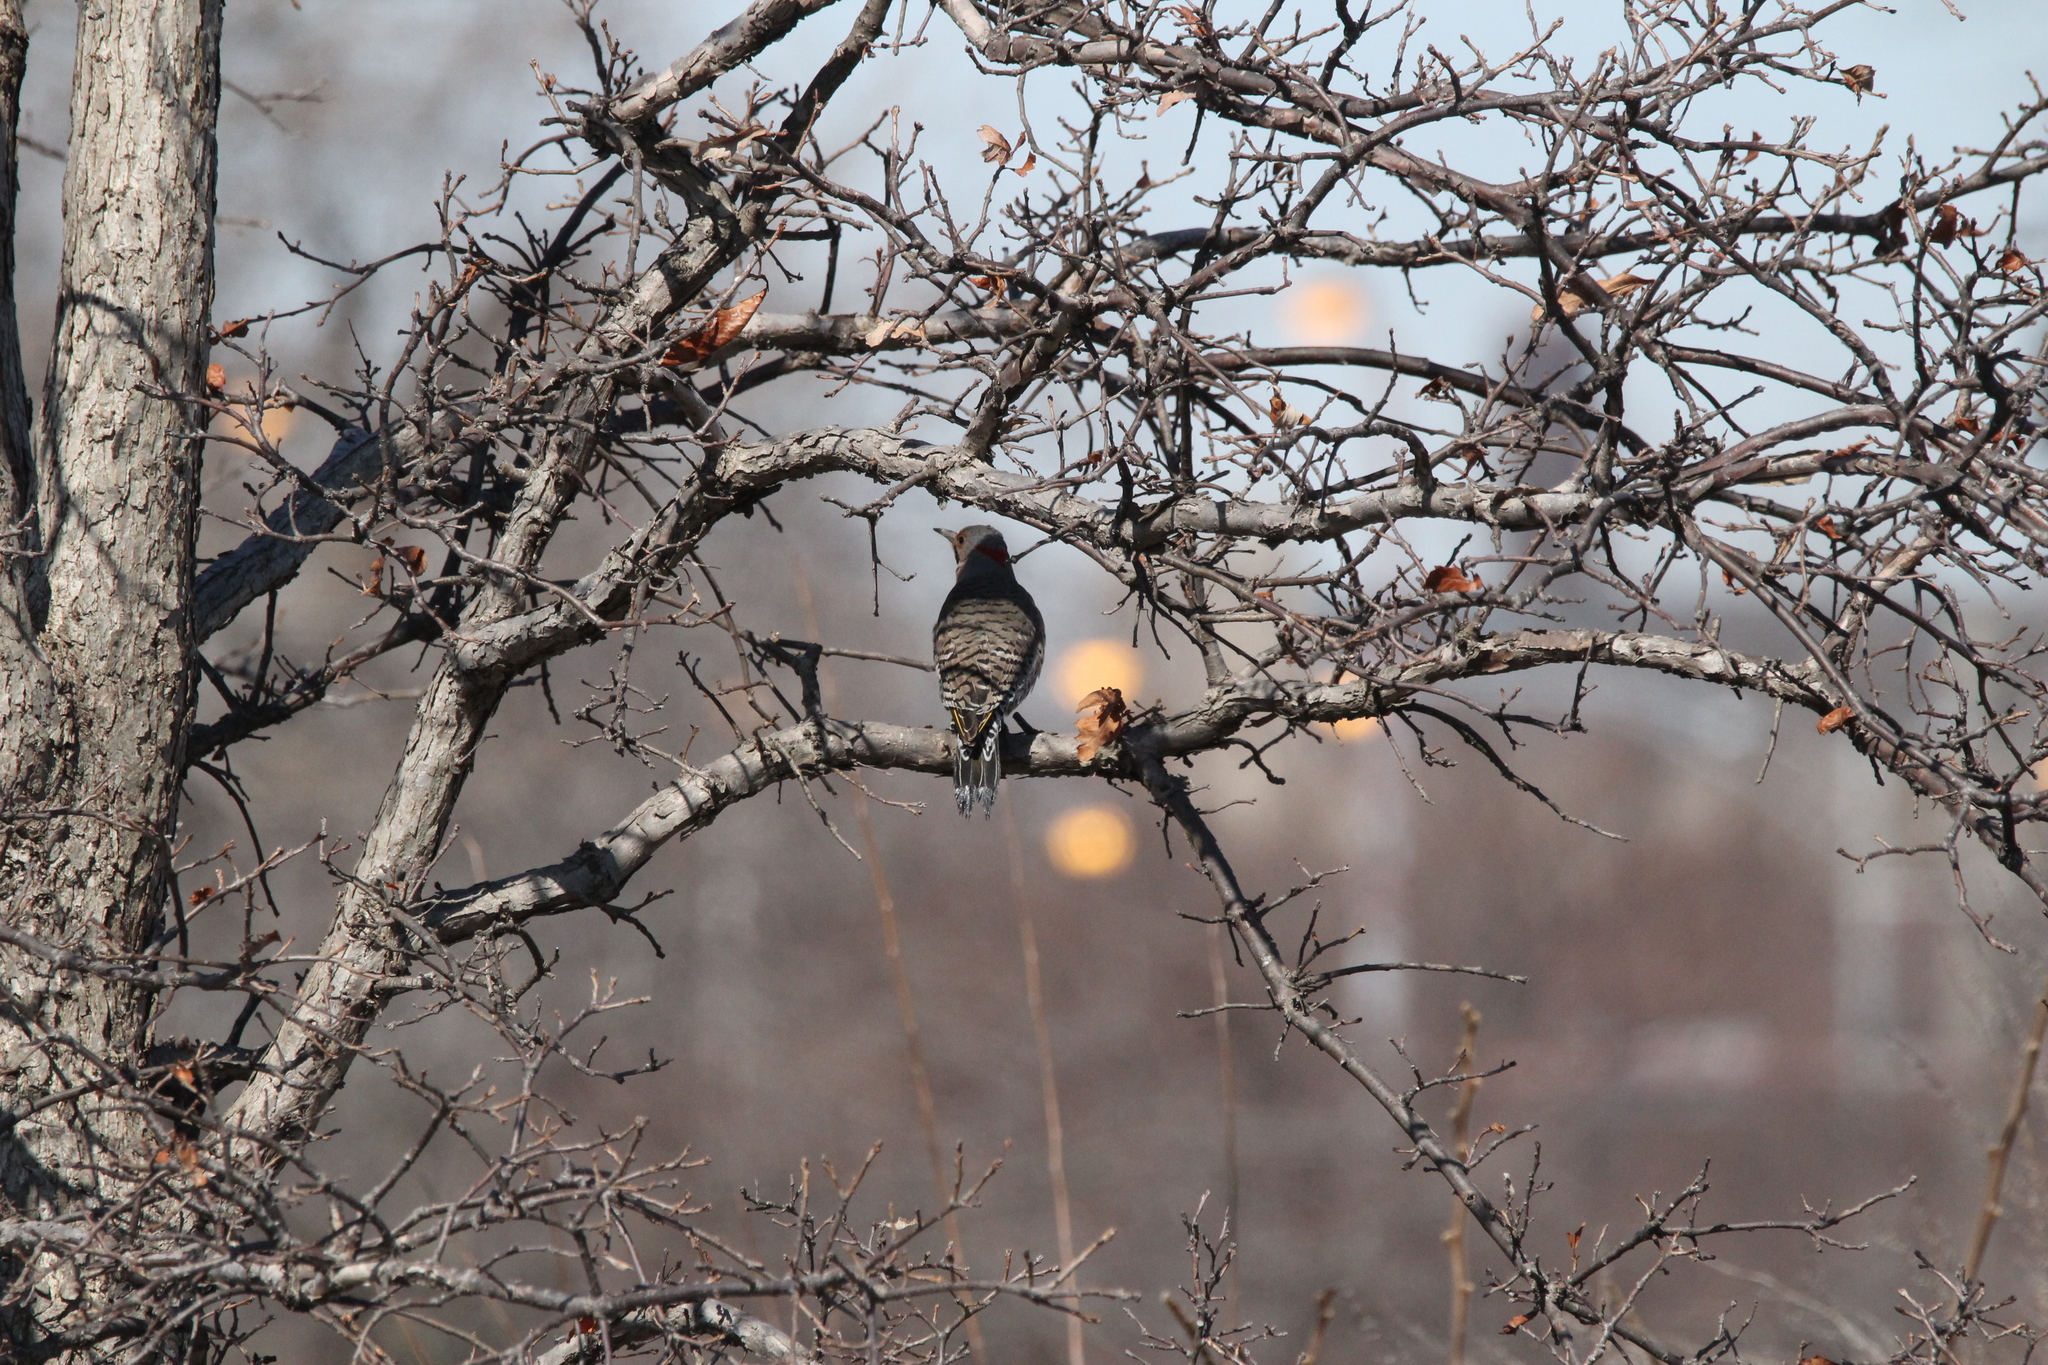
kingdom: Animalia
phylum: Chordata
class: Aves
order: Piciformes
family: Picidae
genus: Colaptes
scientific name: Colaptes auratus
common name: Northern flicker
